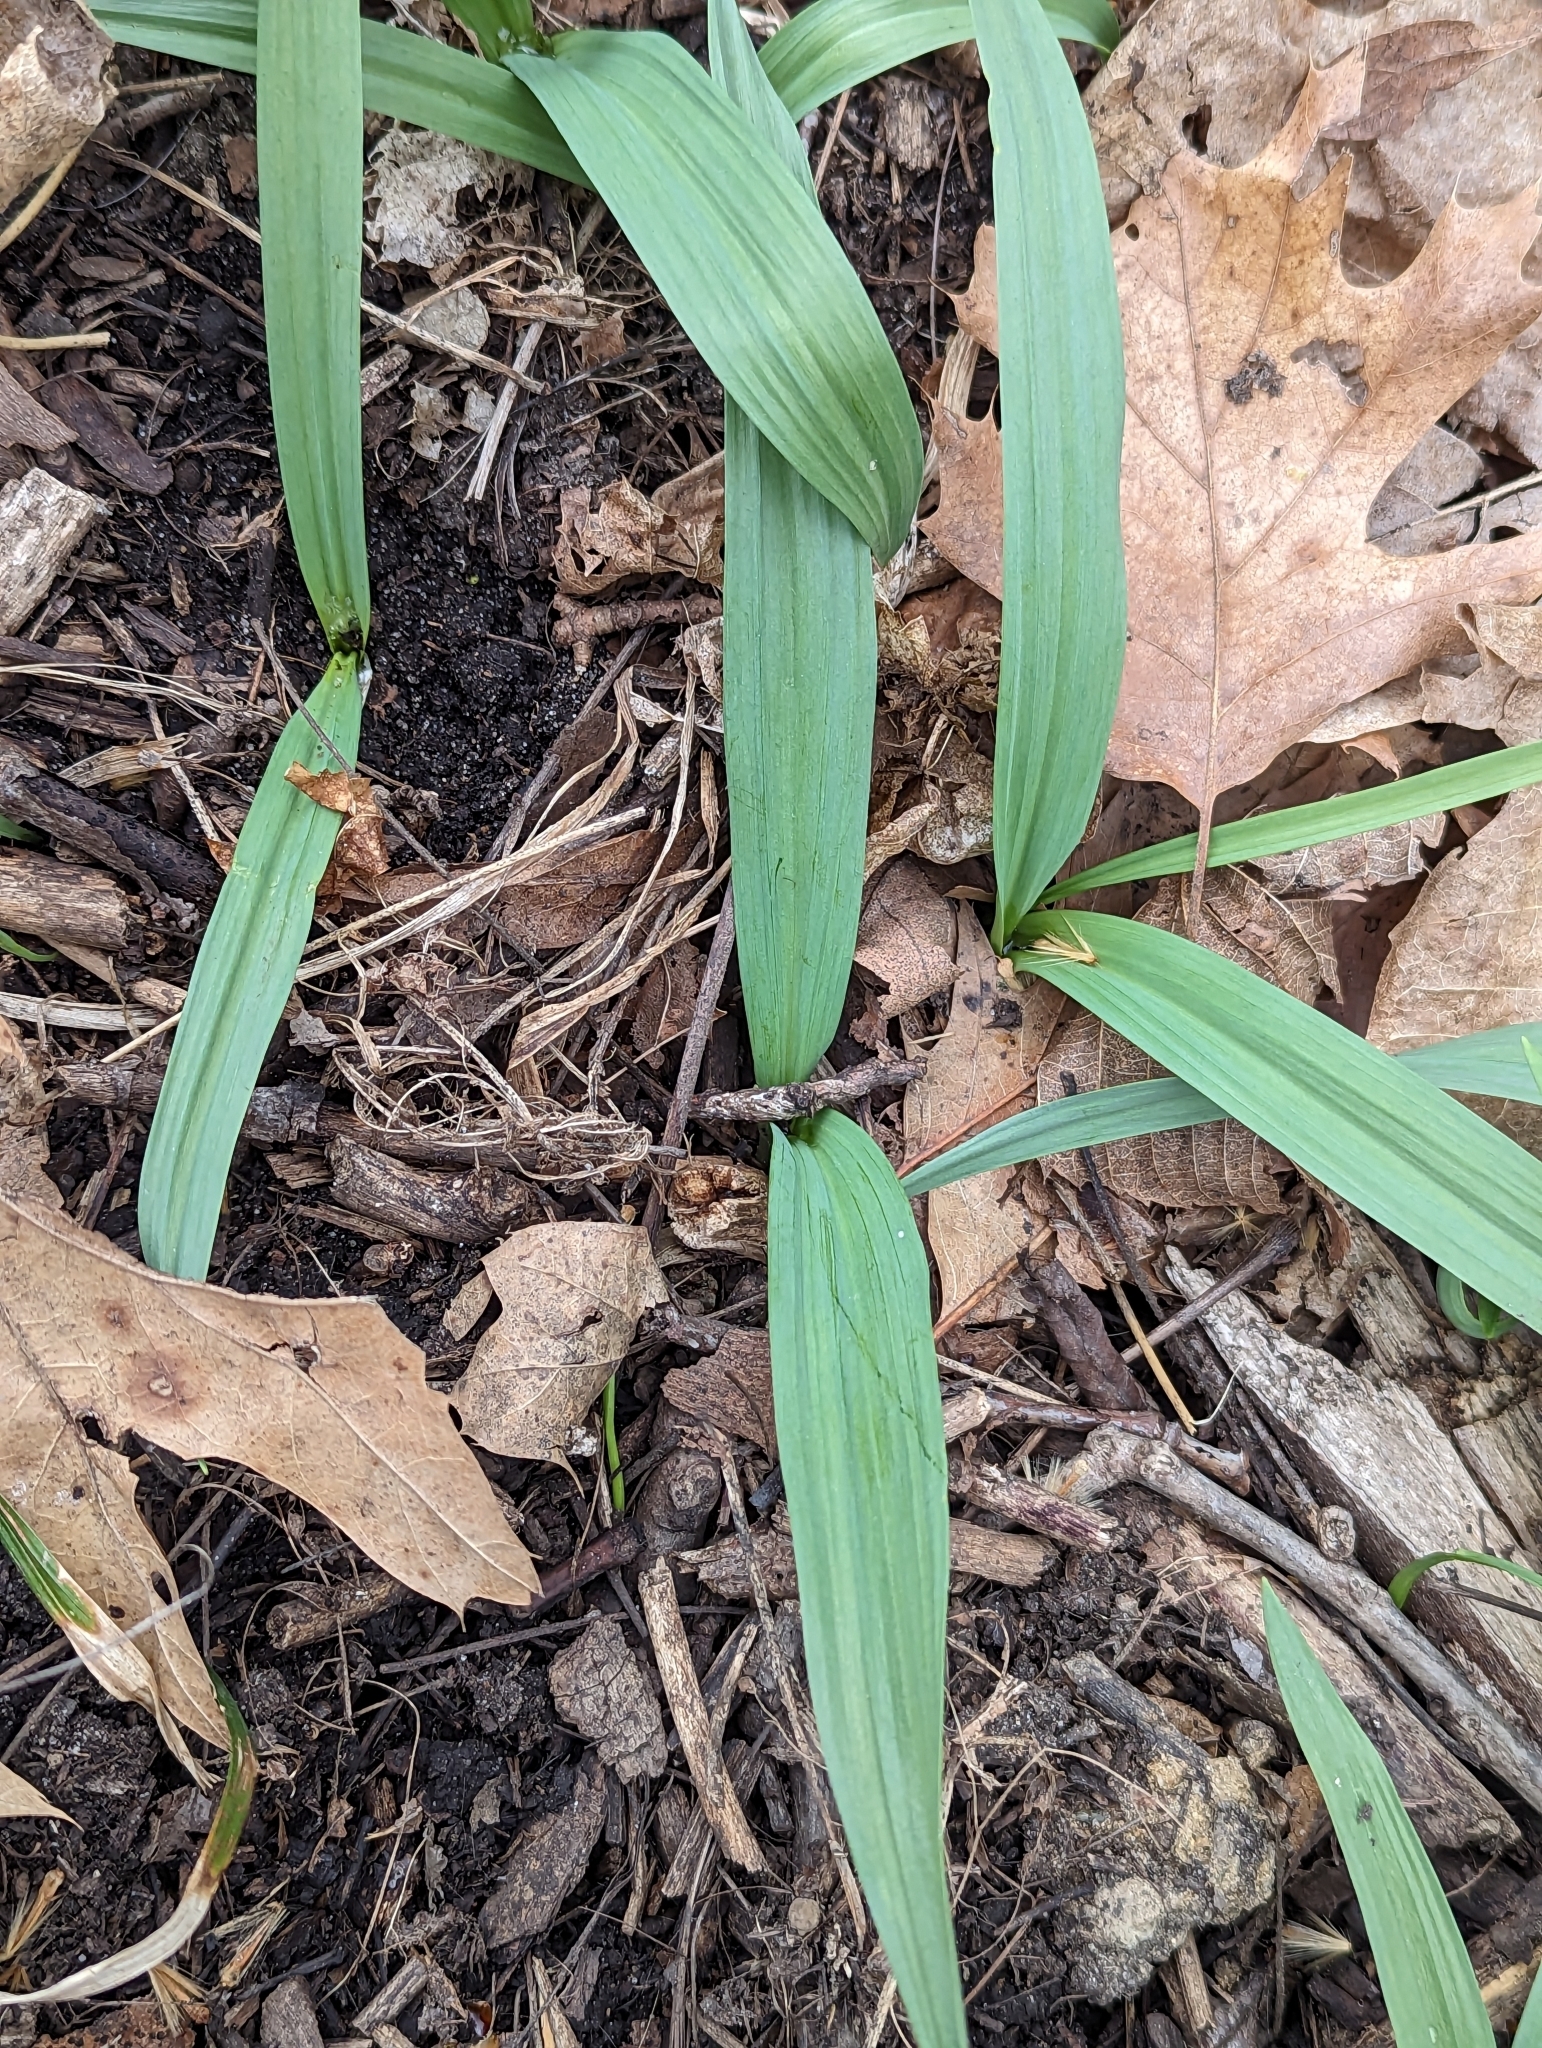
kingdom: Plantae
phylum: Tracheophyta
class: Liliopsida
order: Asparagales
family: Amaryllidaceae
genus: Allium
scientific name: Allium tricoccum
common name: Ramp
